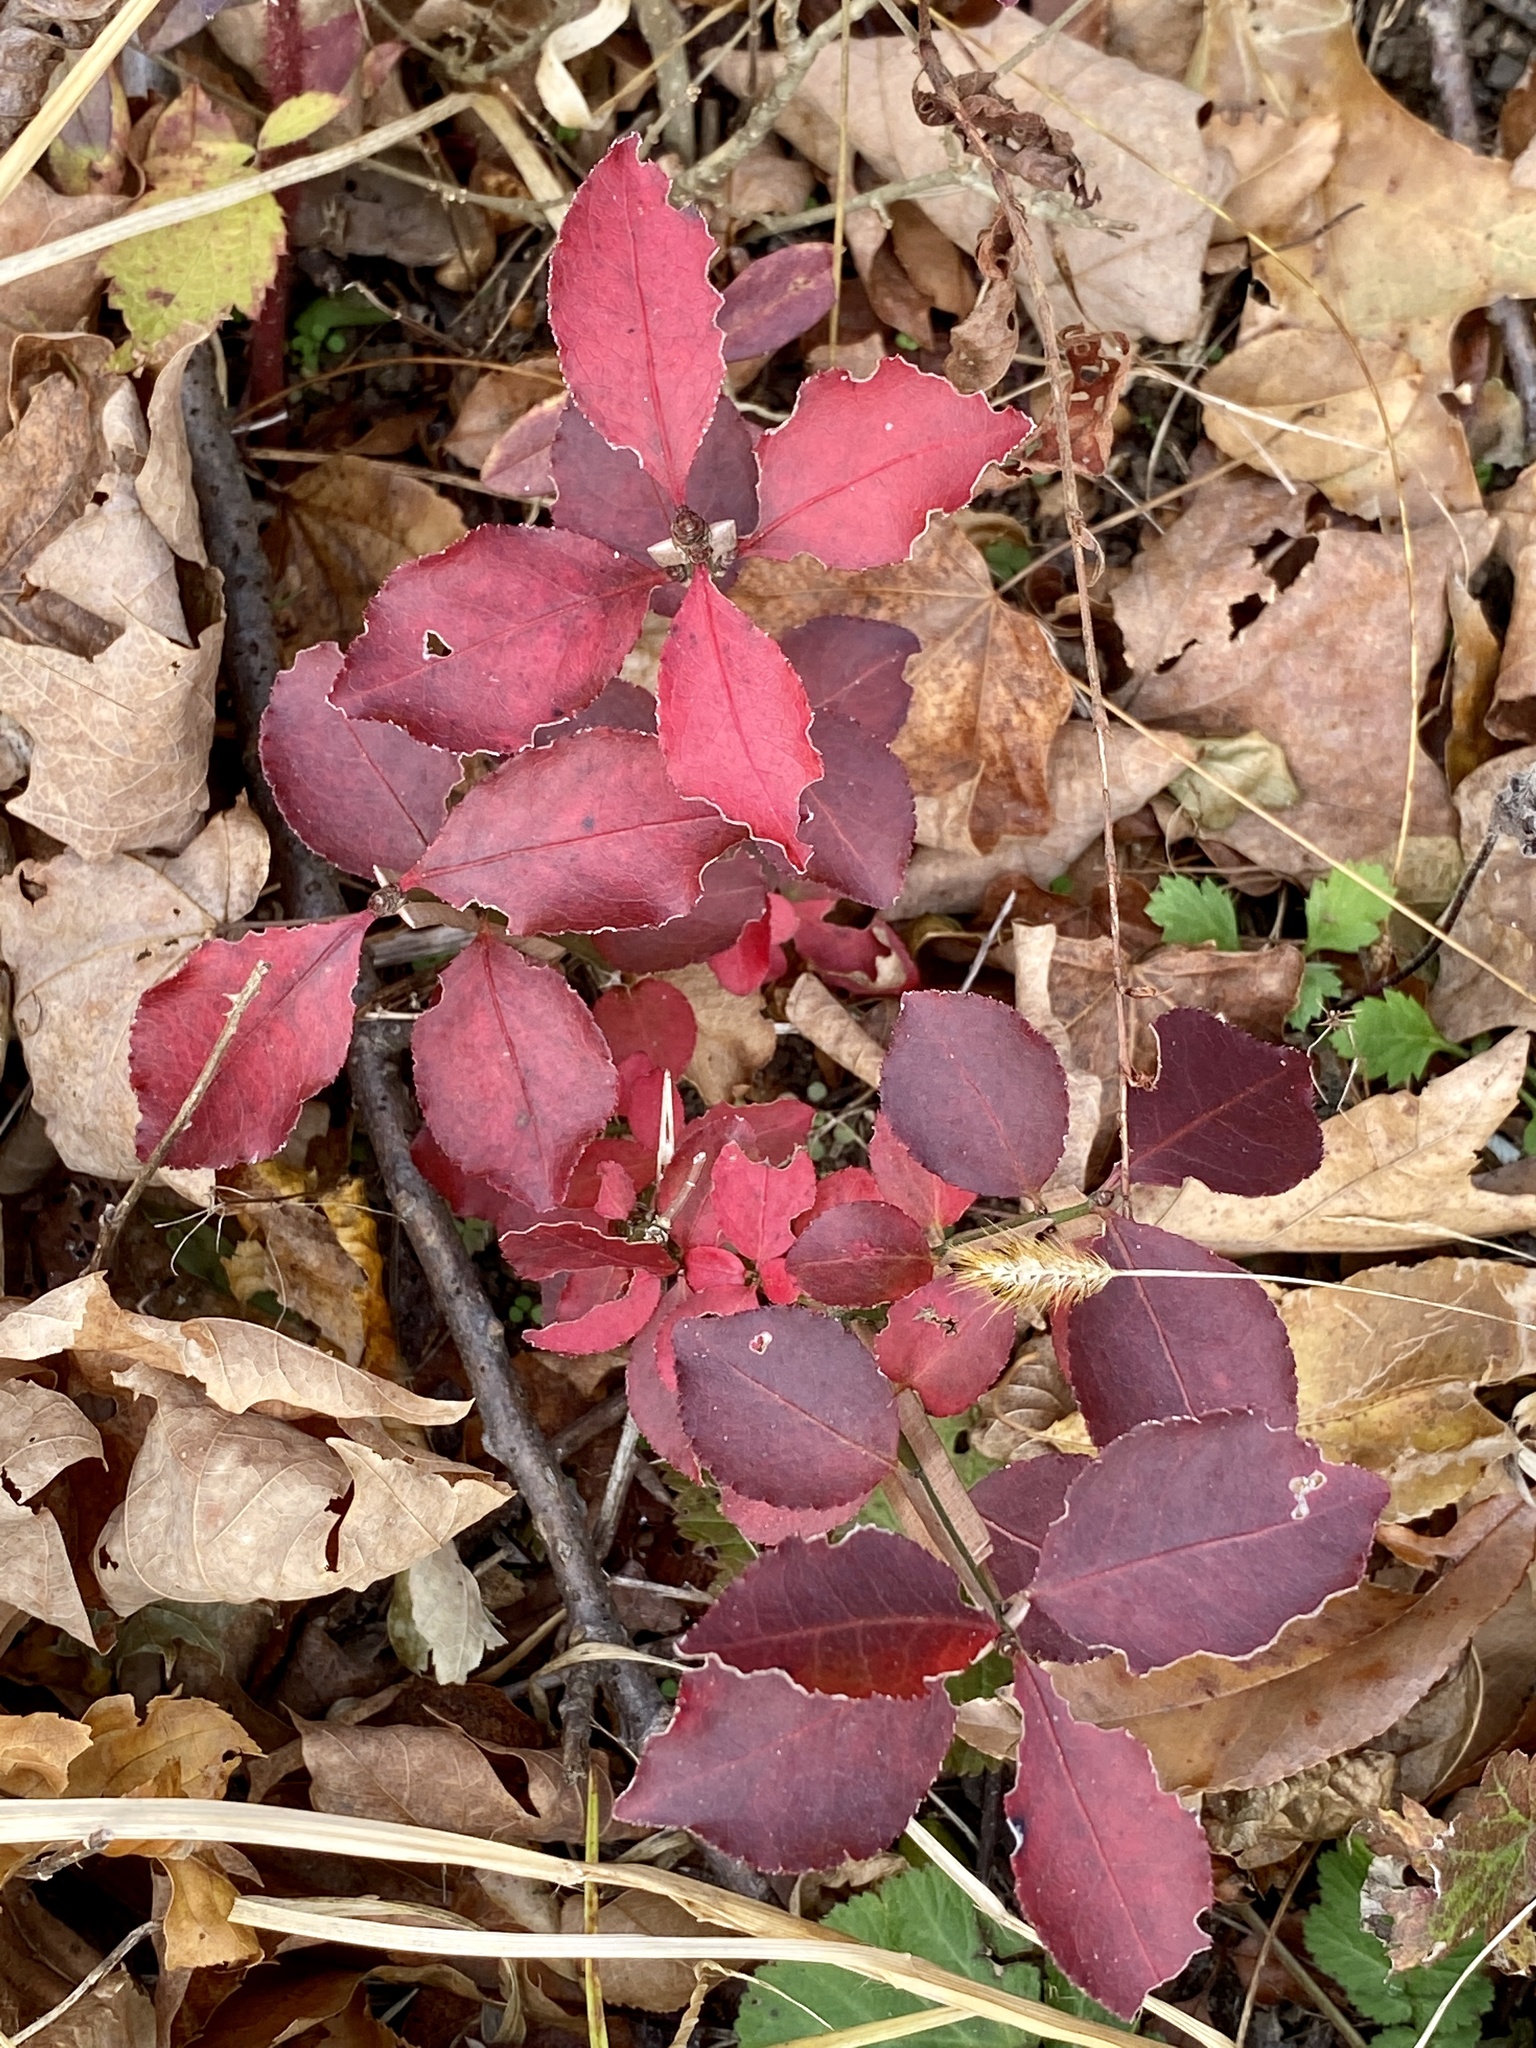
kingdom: Plantae
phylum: Tracheophyta
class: Magnoliopsida
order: Celastrales
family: Celastraceae
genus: Euonymus
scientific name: Euonymus alatus
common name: Winged euonymus
